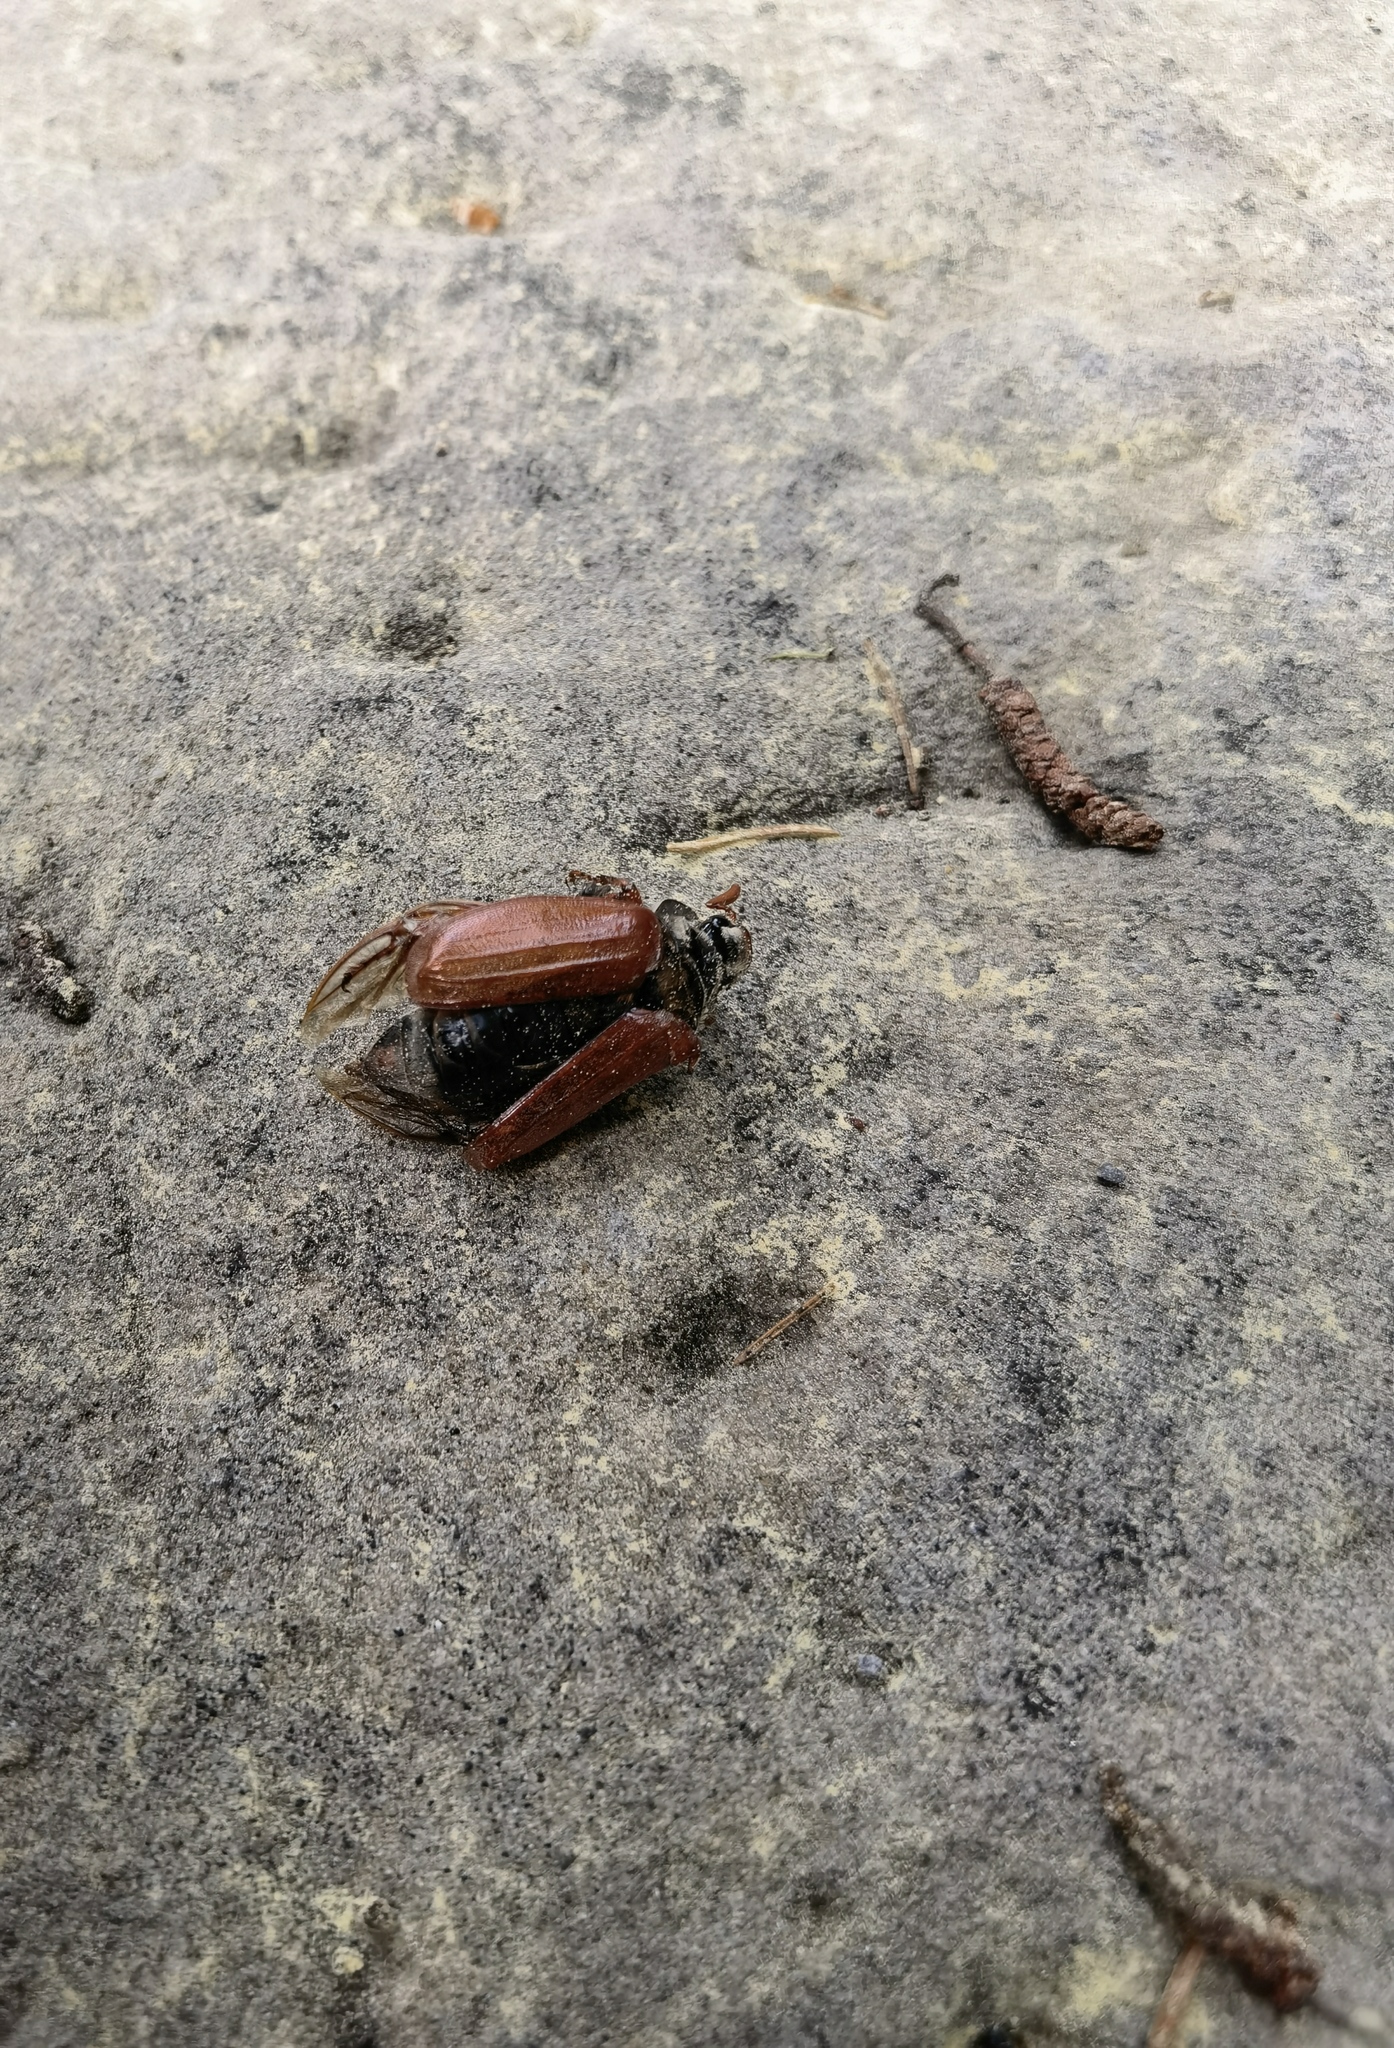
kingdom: Animalia
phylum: Arthropoda
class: Insecta
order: Coleoptera
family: Scarabaeidae
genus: Melolontha
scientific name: Melolontha melolontha
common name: Cockchafer maybeetle
